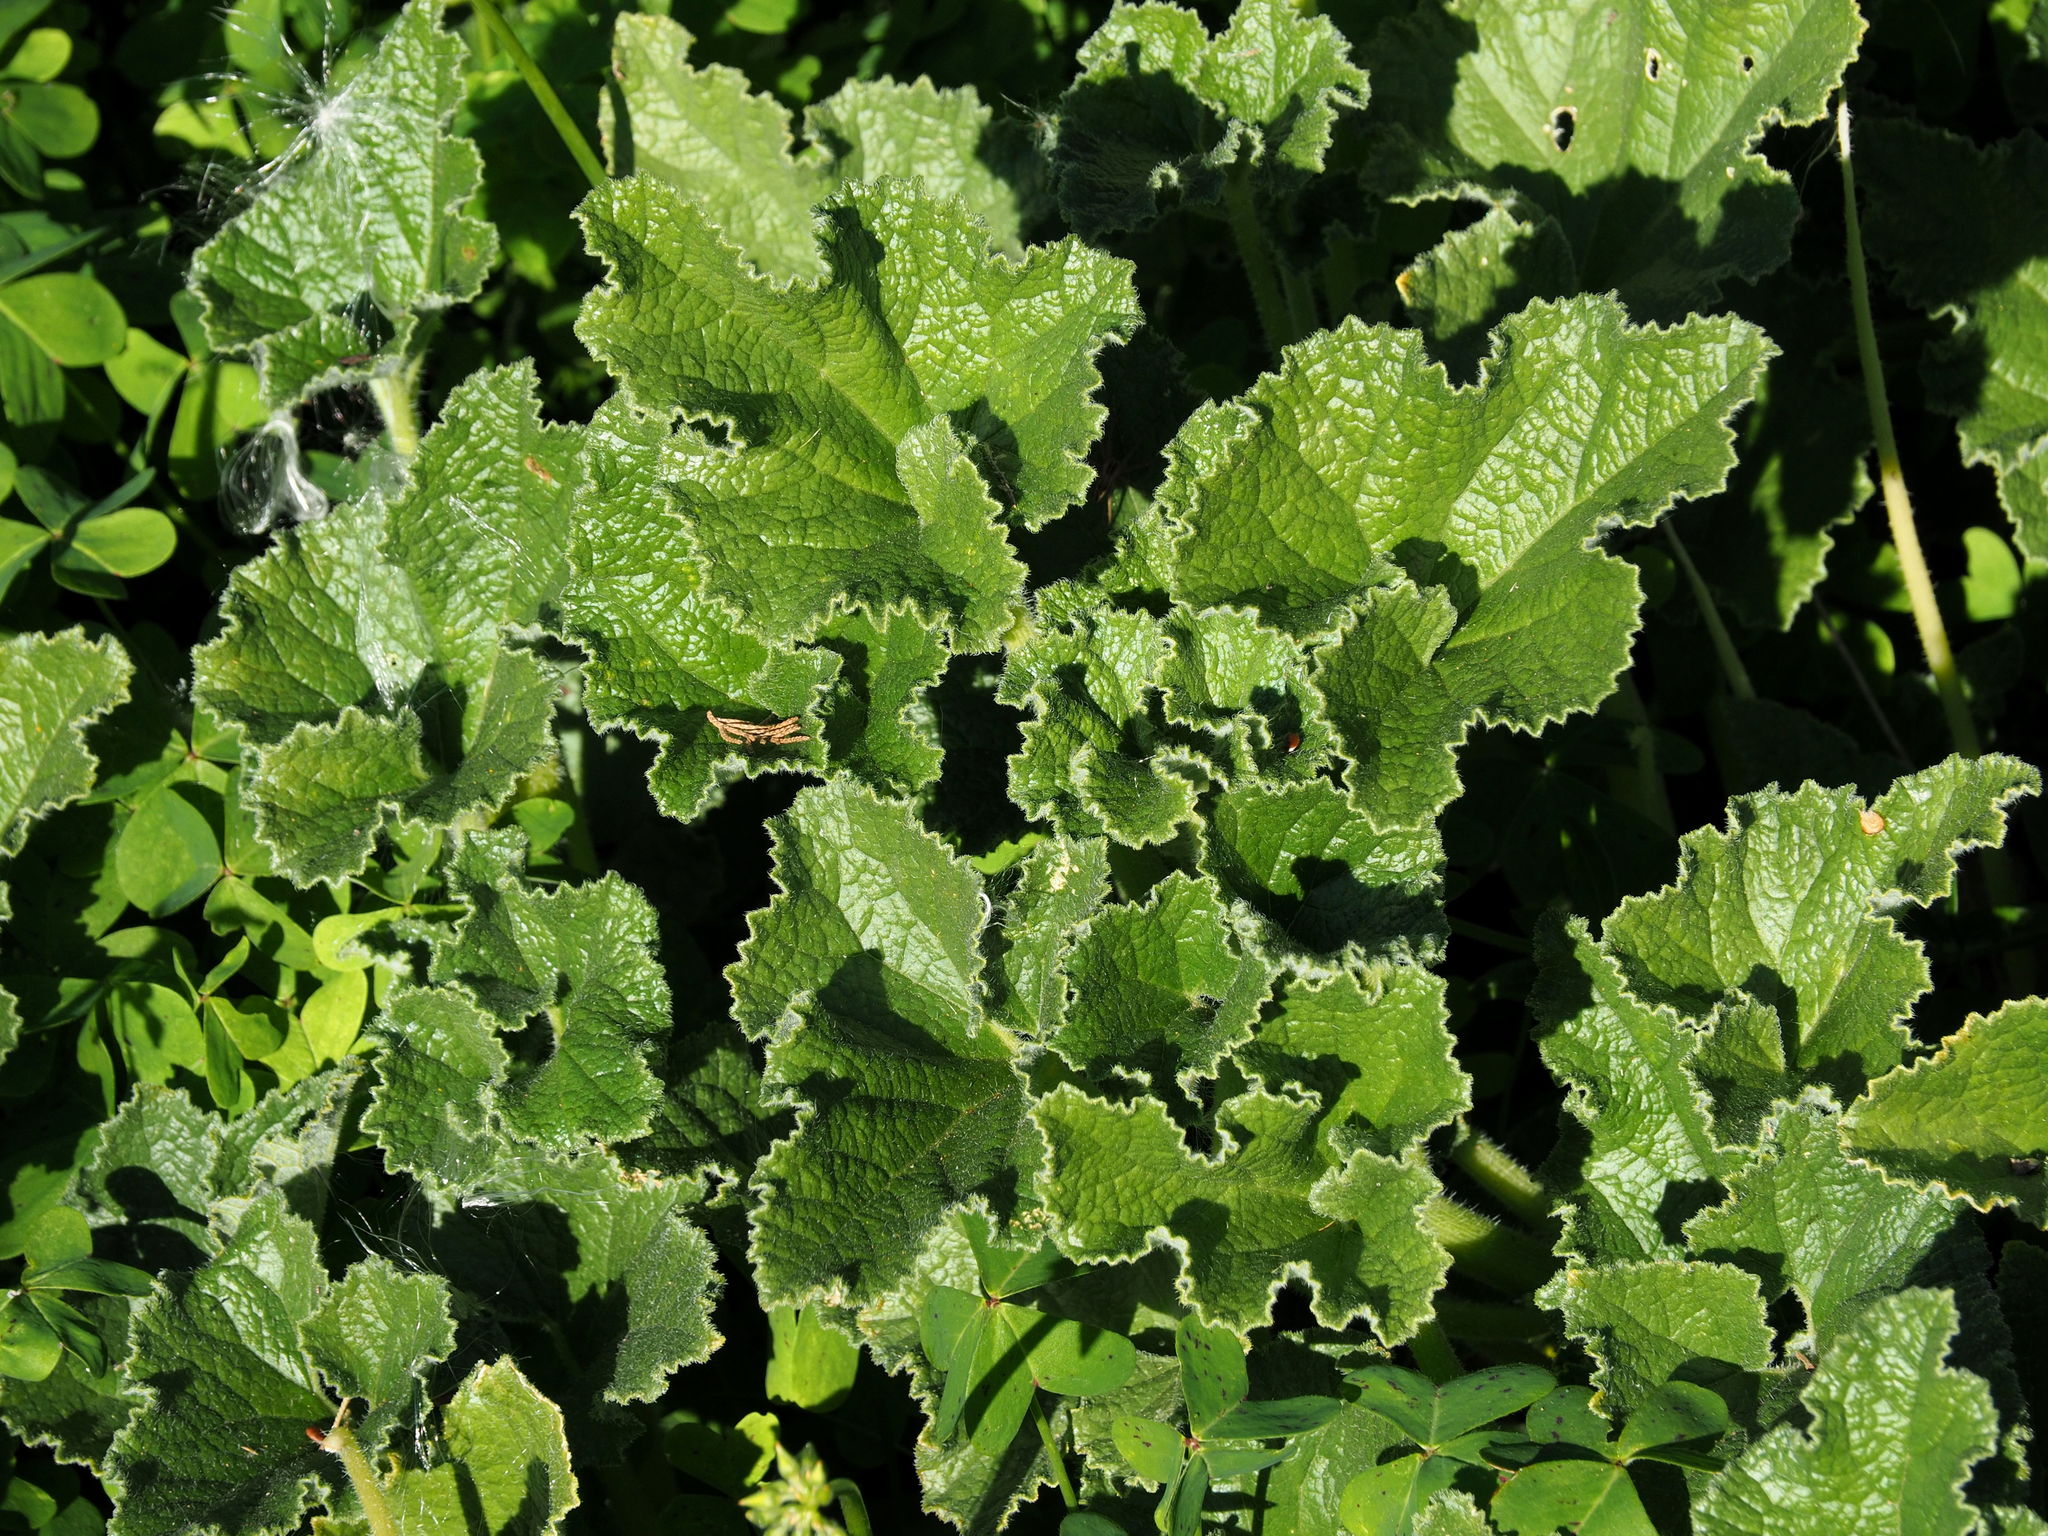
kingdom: Plantae
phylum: Tracheophyta
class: Magnoliopsida
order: Cucurbitales
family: Cucurbitaceae
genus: Ecballium
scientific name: Ecballium elaterium
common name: Squirting cucumber
